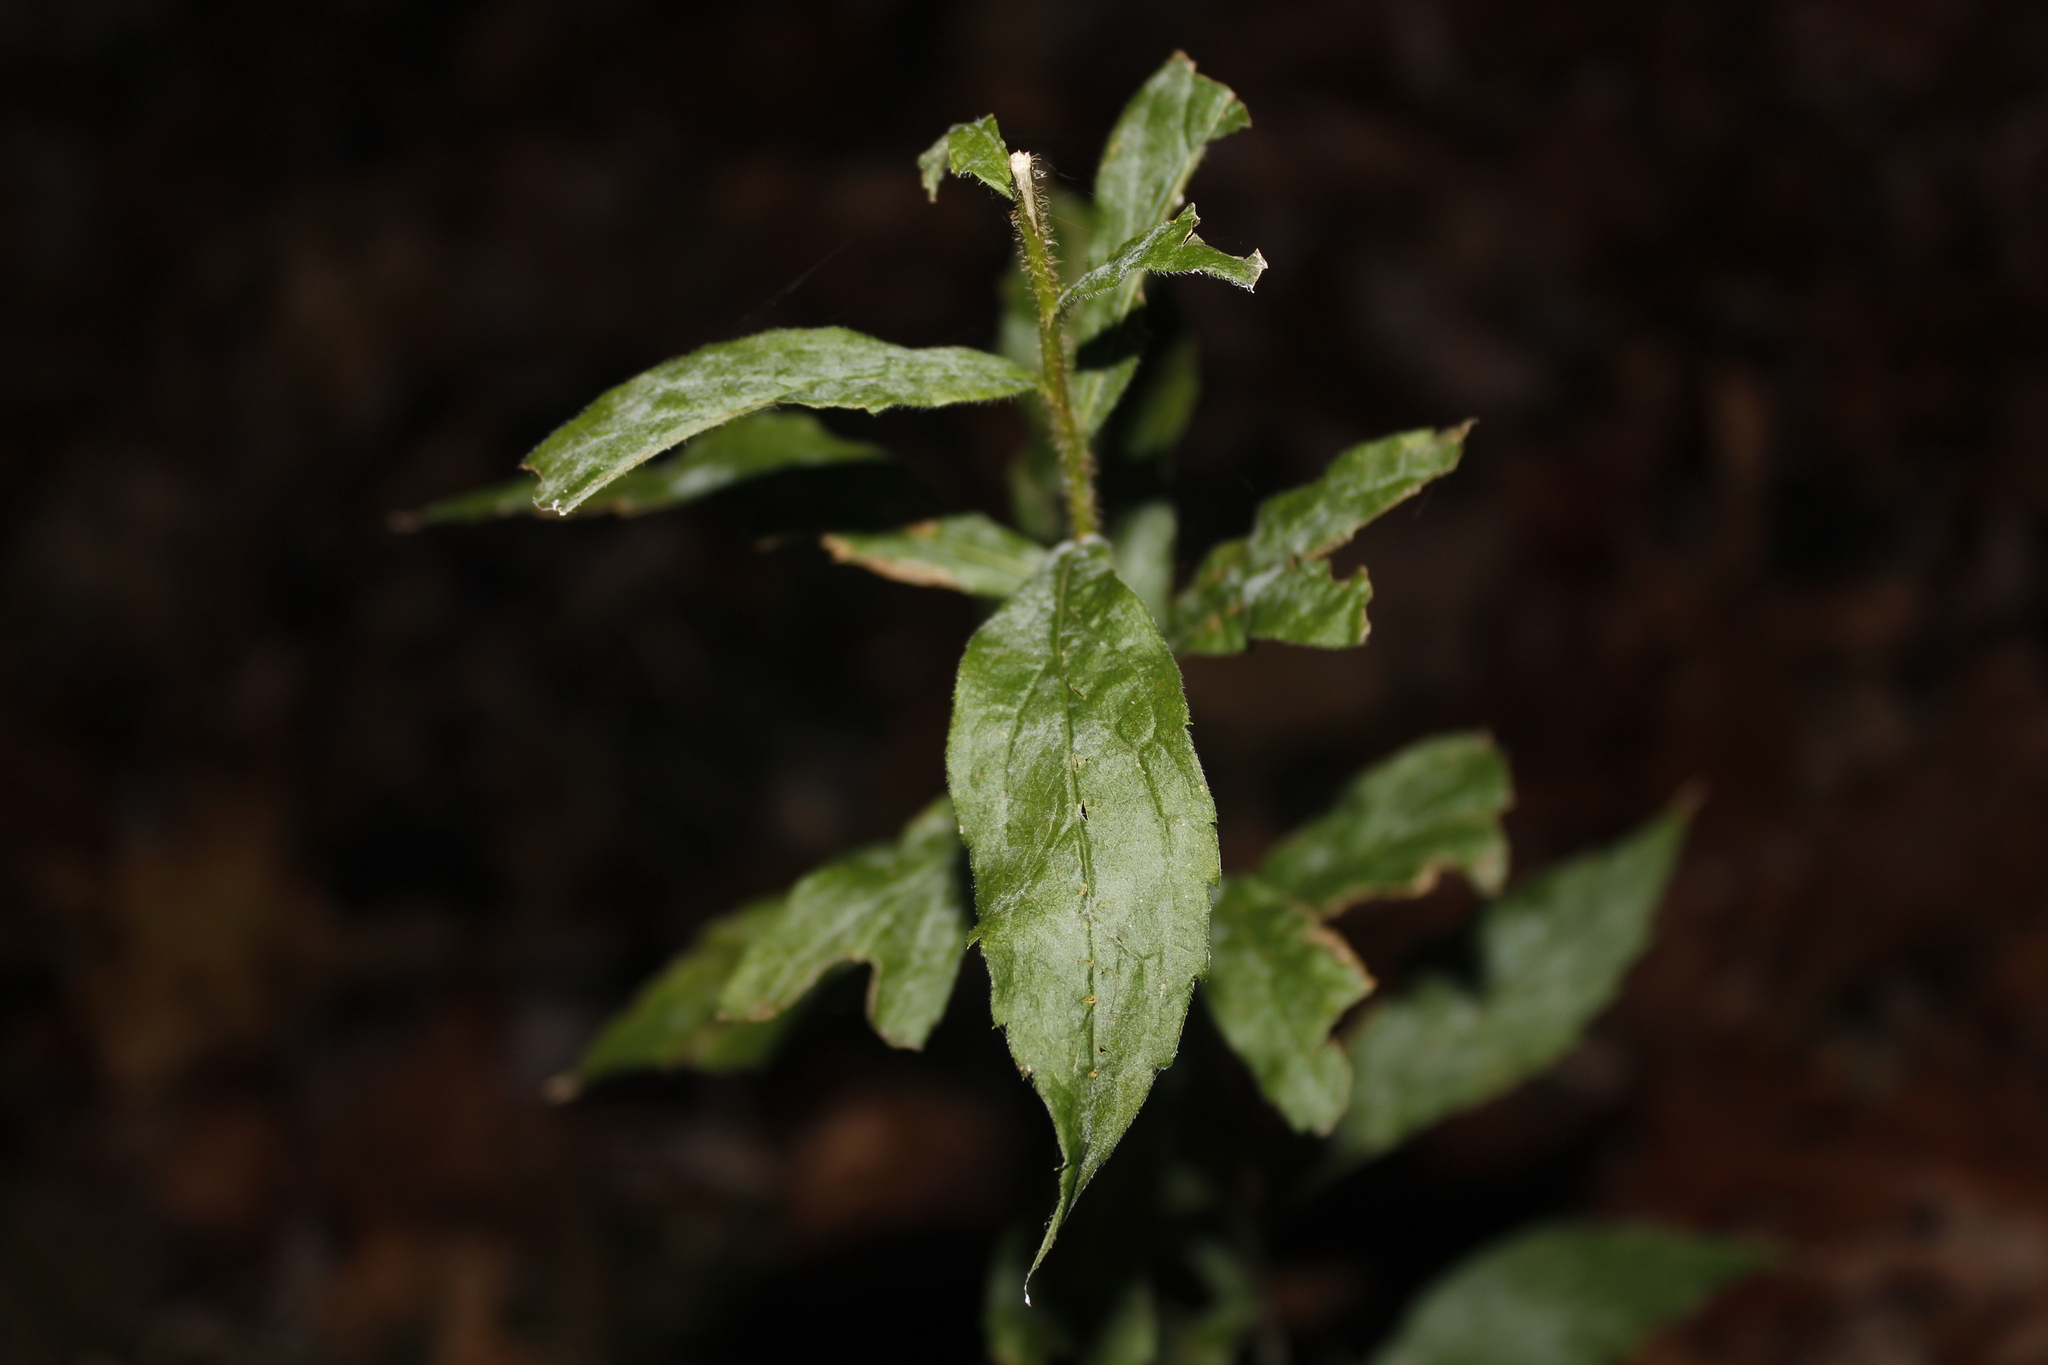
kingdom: Fungi
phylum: Ascomycota
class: Leotiomycetes
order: Helotiales
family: Erysiphaceae
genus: Golovinomyces
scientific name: Golovinomyces asterum
